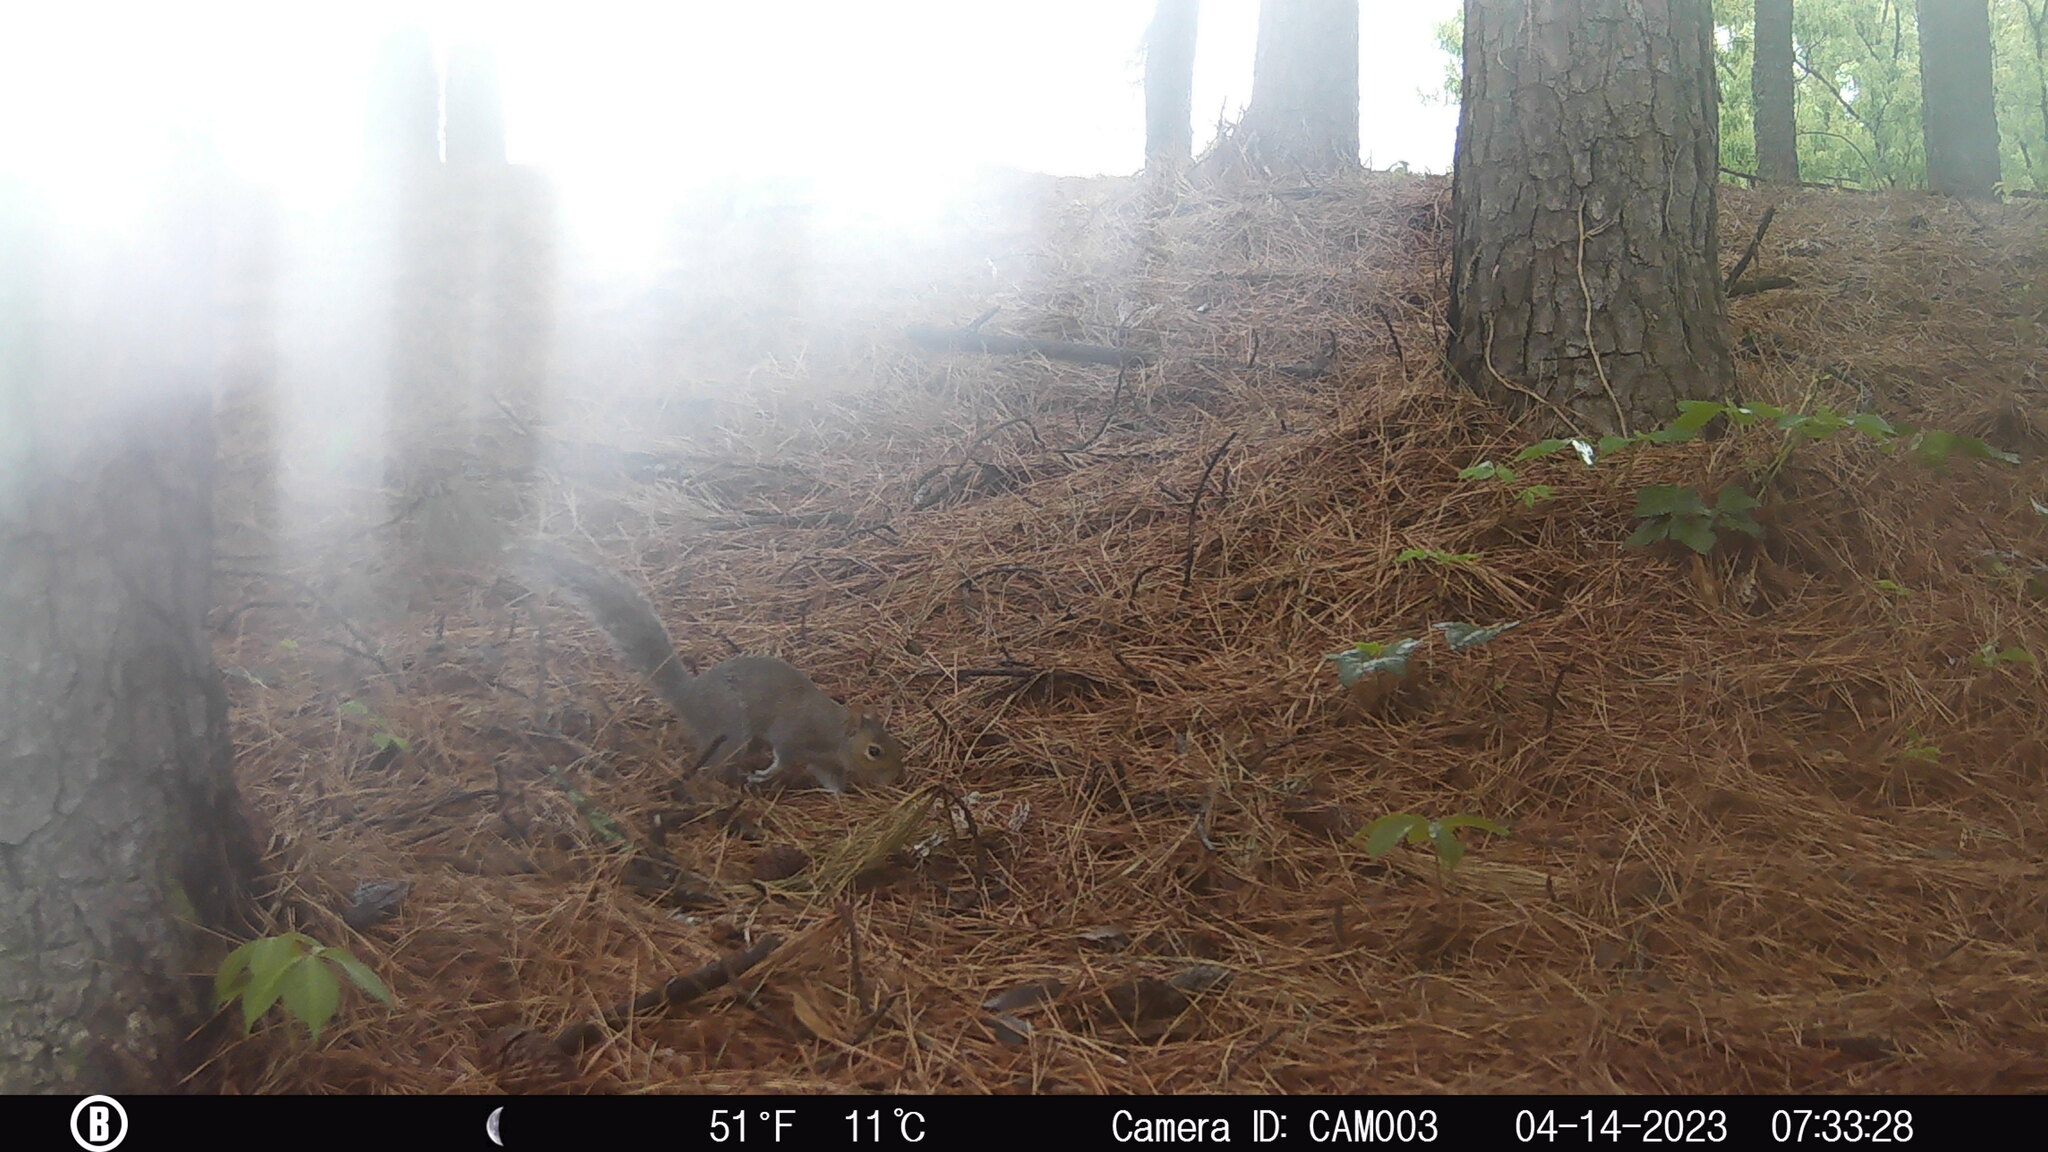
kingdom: Animalia
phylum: Chordata
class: Mammalia
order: Rodentia
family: Sciuridae
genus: Sciurus
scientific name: Sciurus carolinensis
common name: Eastern gray squirrel
